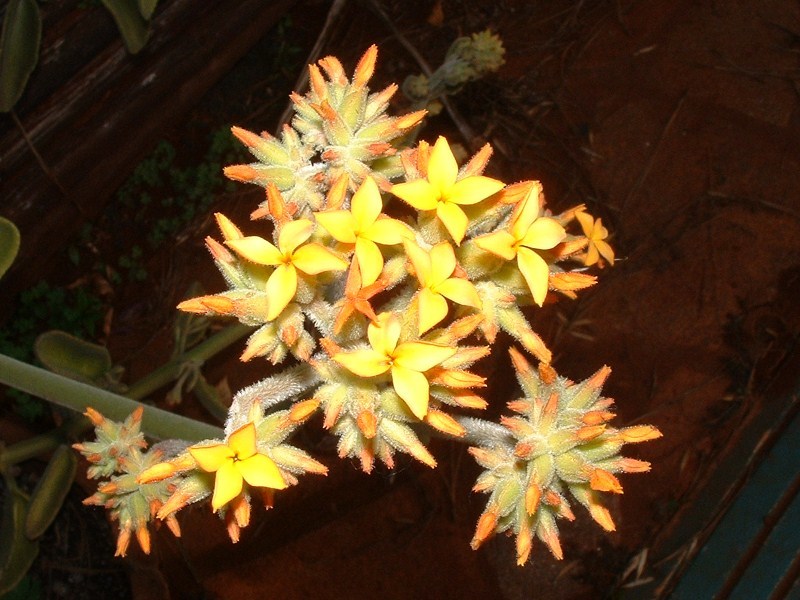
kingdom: Plantae
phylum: Tracheophyta
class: Magnoliopsida
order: Saxifragales
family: Crassulaceae
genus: Kalanchoe
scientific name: Kalanchoe lanceolata
